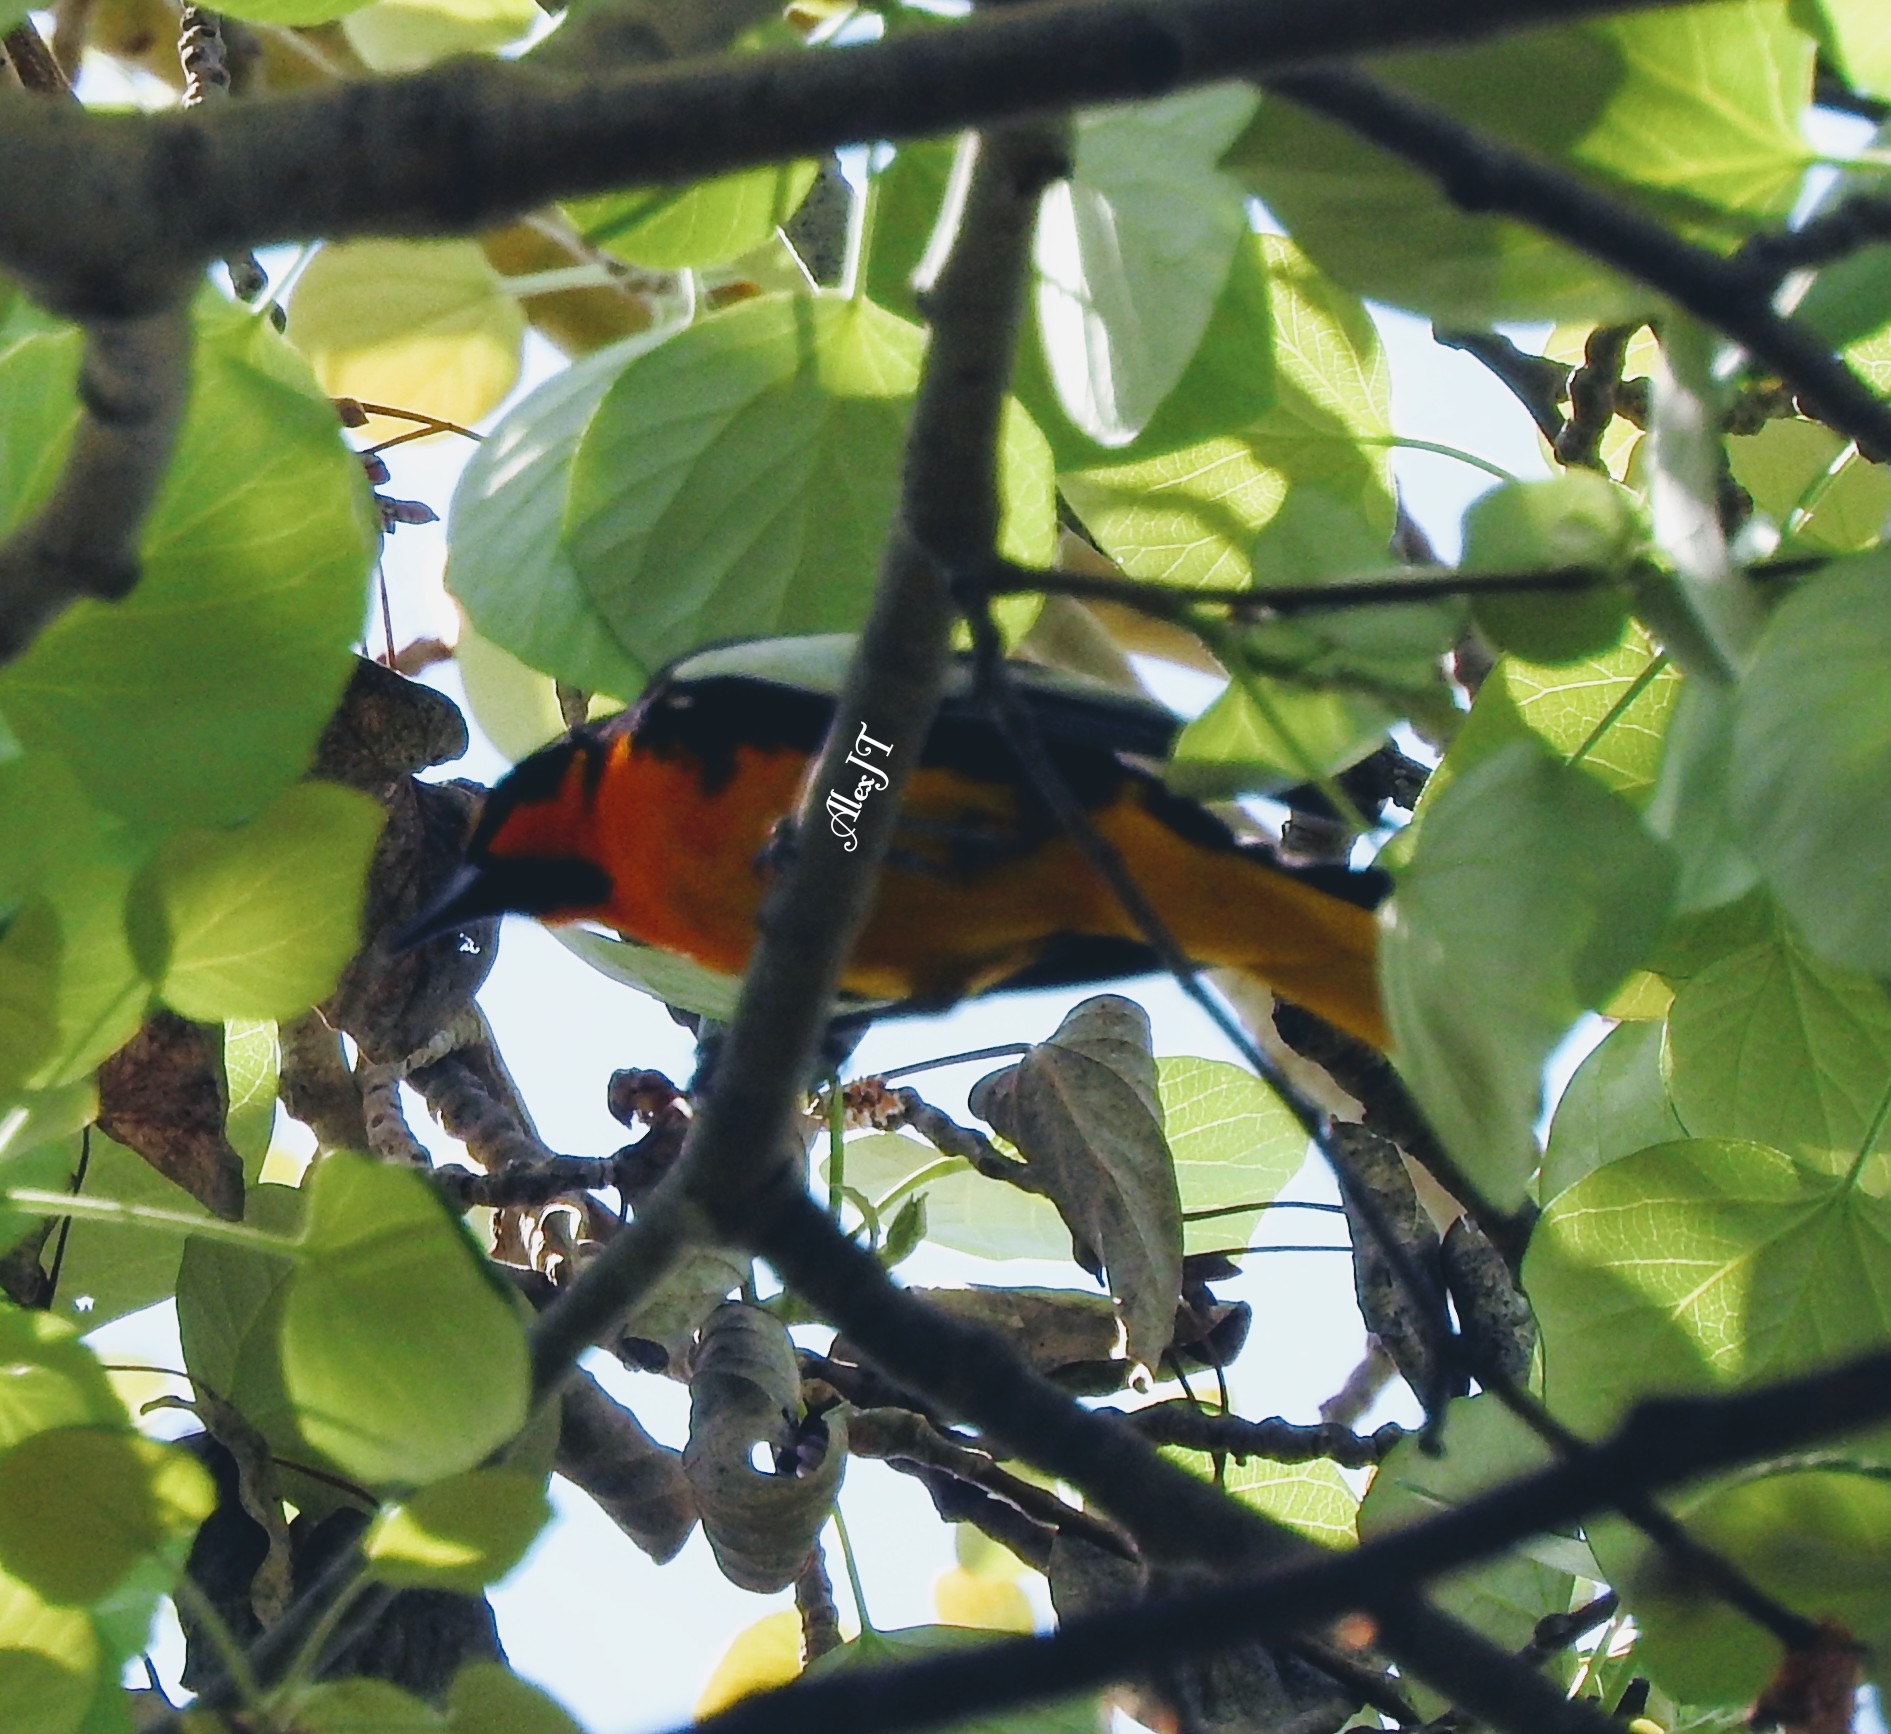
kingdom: Animalia
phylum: Chordata
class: Aves
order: Passeriformes
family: Icteridae
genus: Icterus
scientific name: Icterus abeillei
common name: Black-backed oriole
